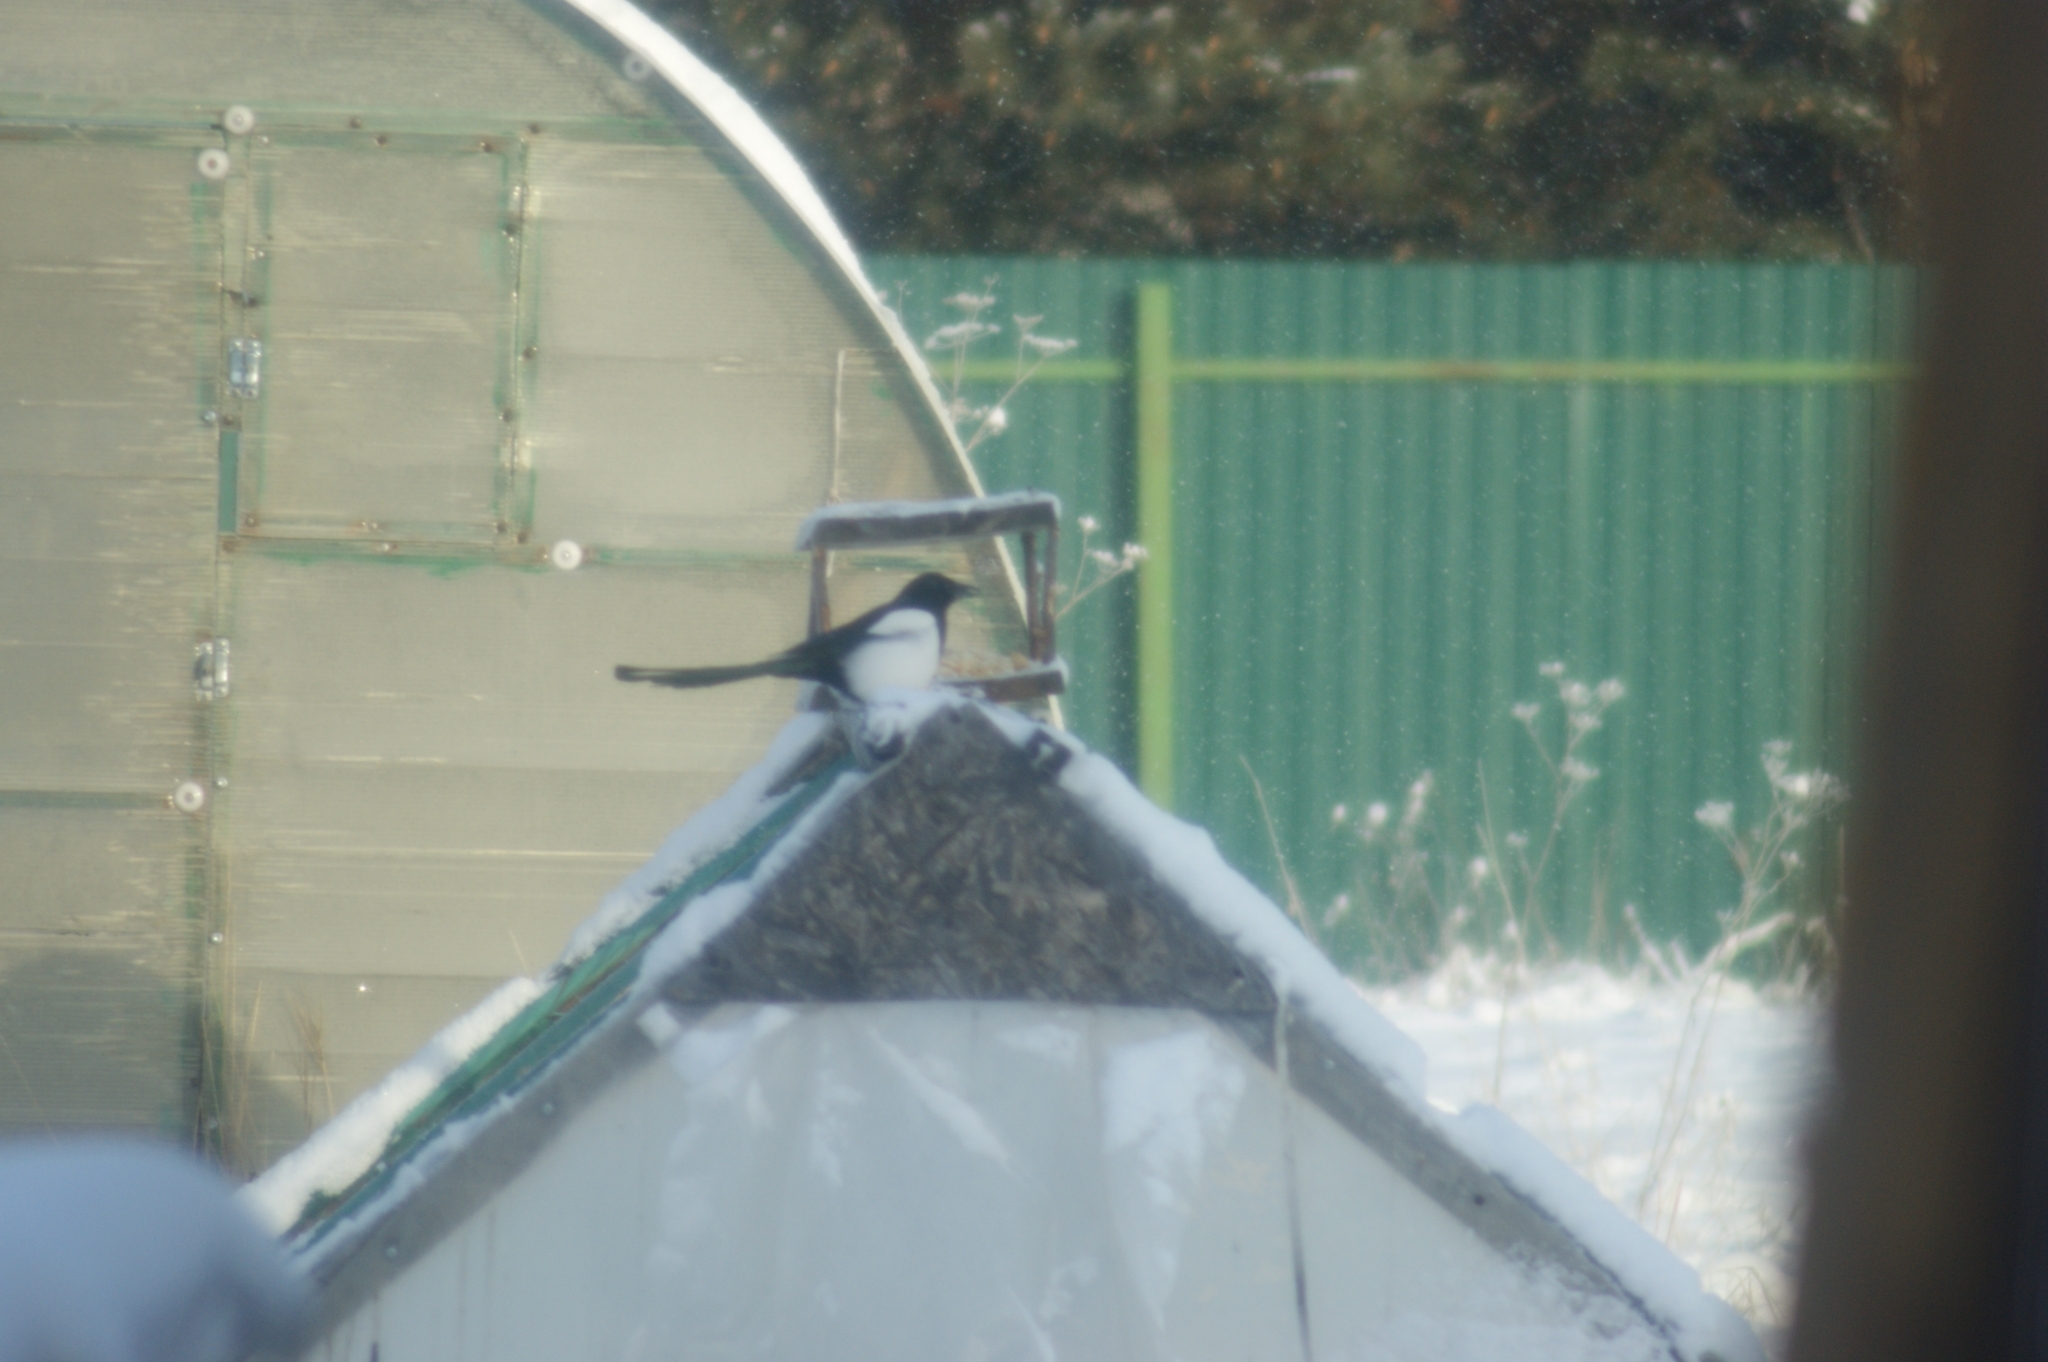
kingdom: Animalia
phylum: Chordata
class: Aves
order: Passeriformes
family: Corvidae
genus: Pica
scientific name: Pica pica
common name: Eurasian magpie
